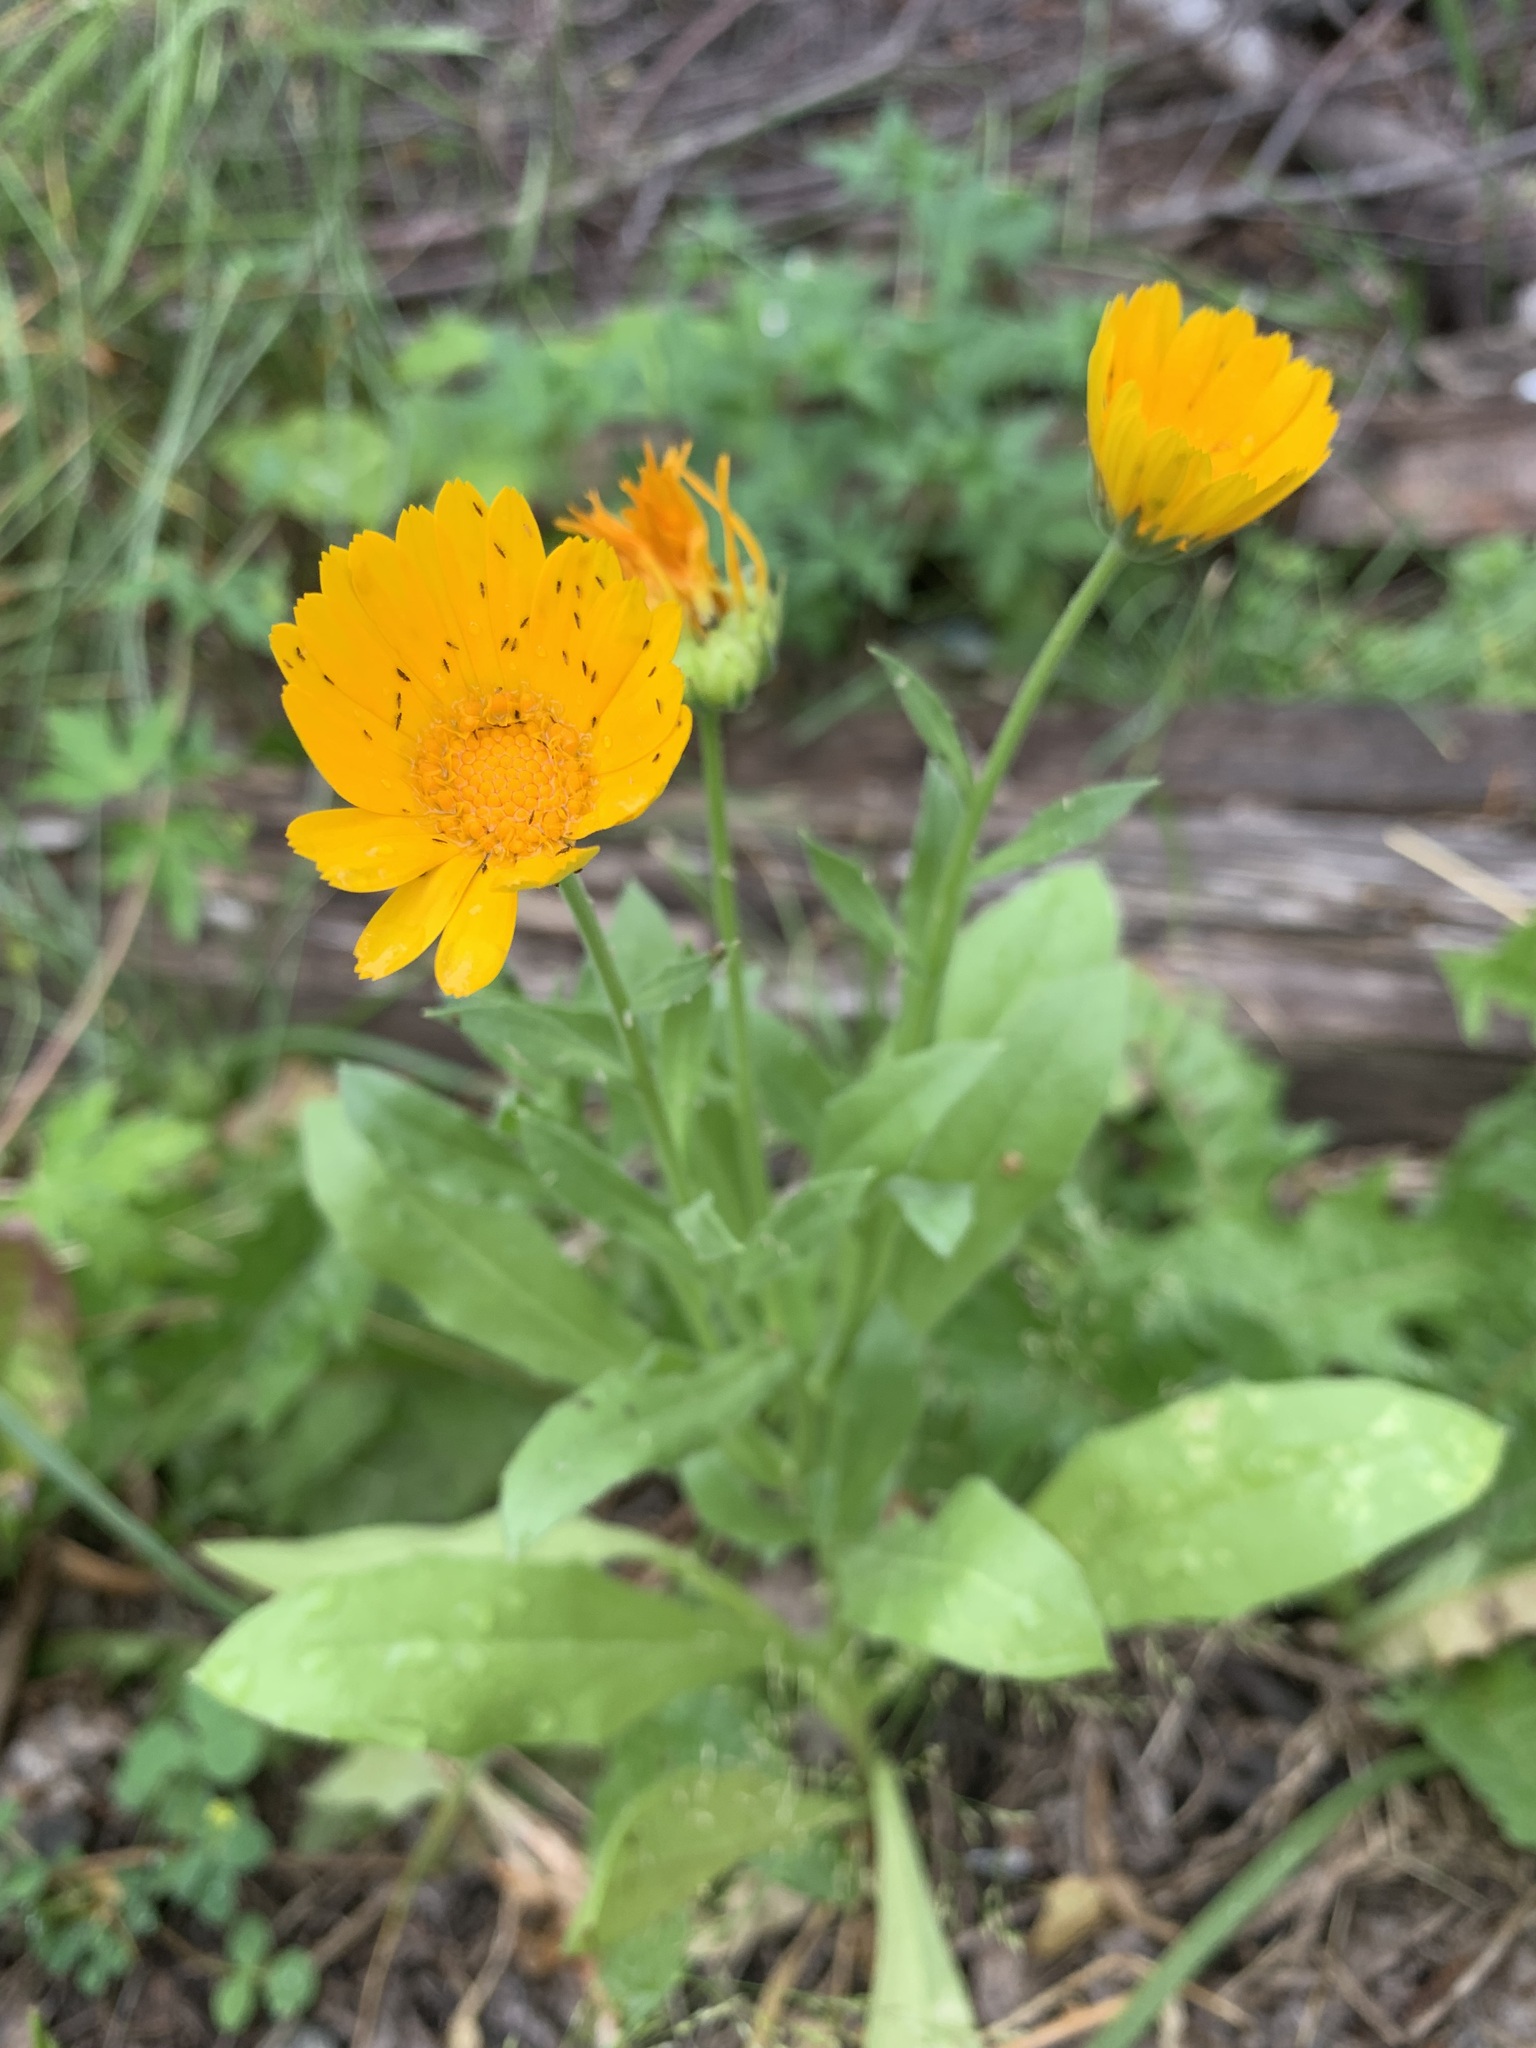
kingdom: Plantae
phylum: Tracheophyta
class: Magnoliopsida
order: Asterales
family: Asteraceae
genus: Calendula
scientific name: Calendula officinalis
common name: Pot marigold
